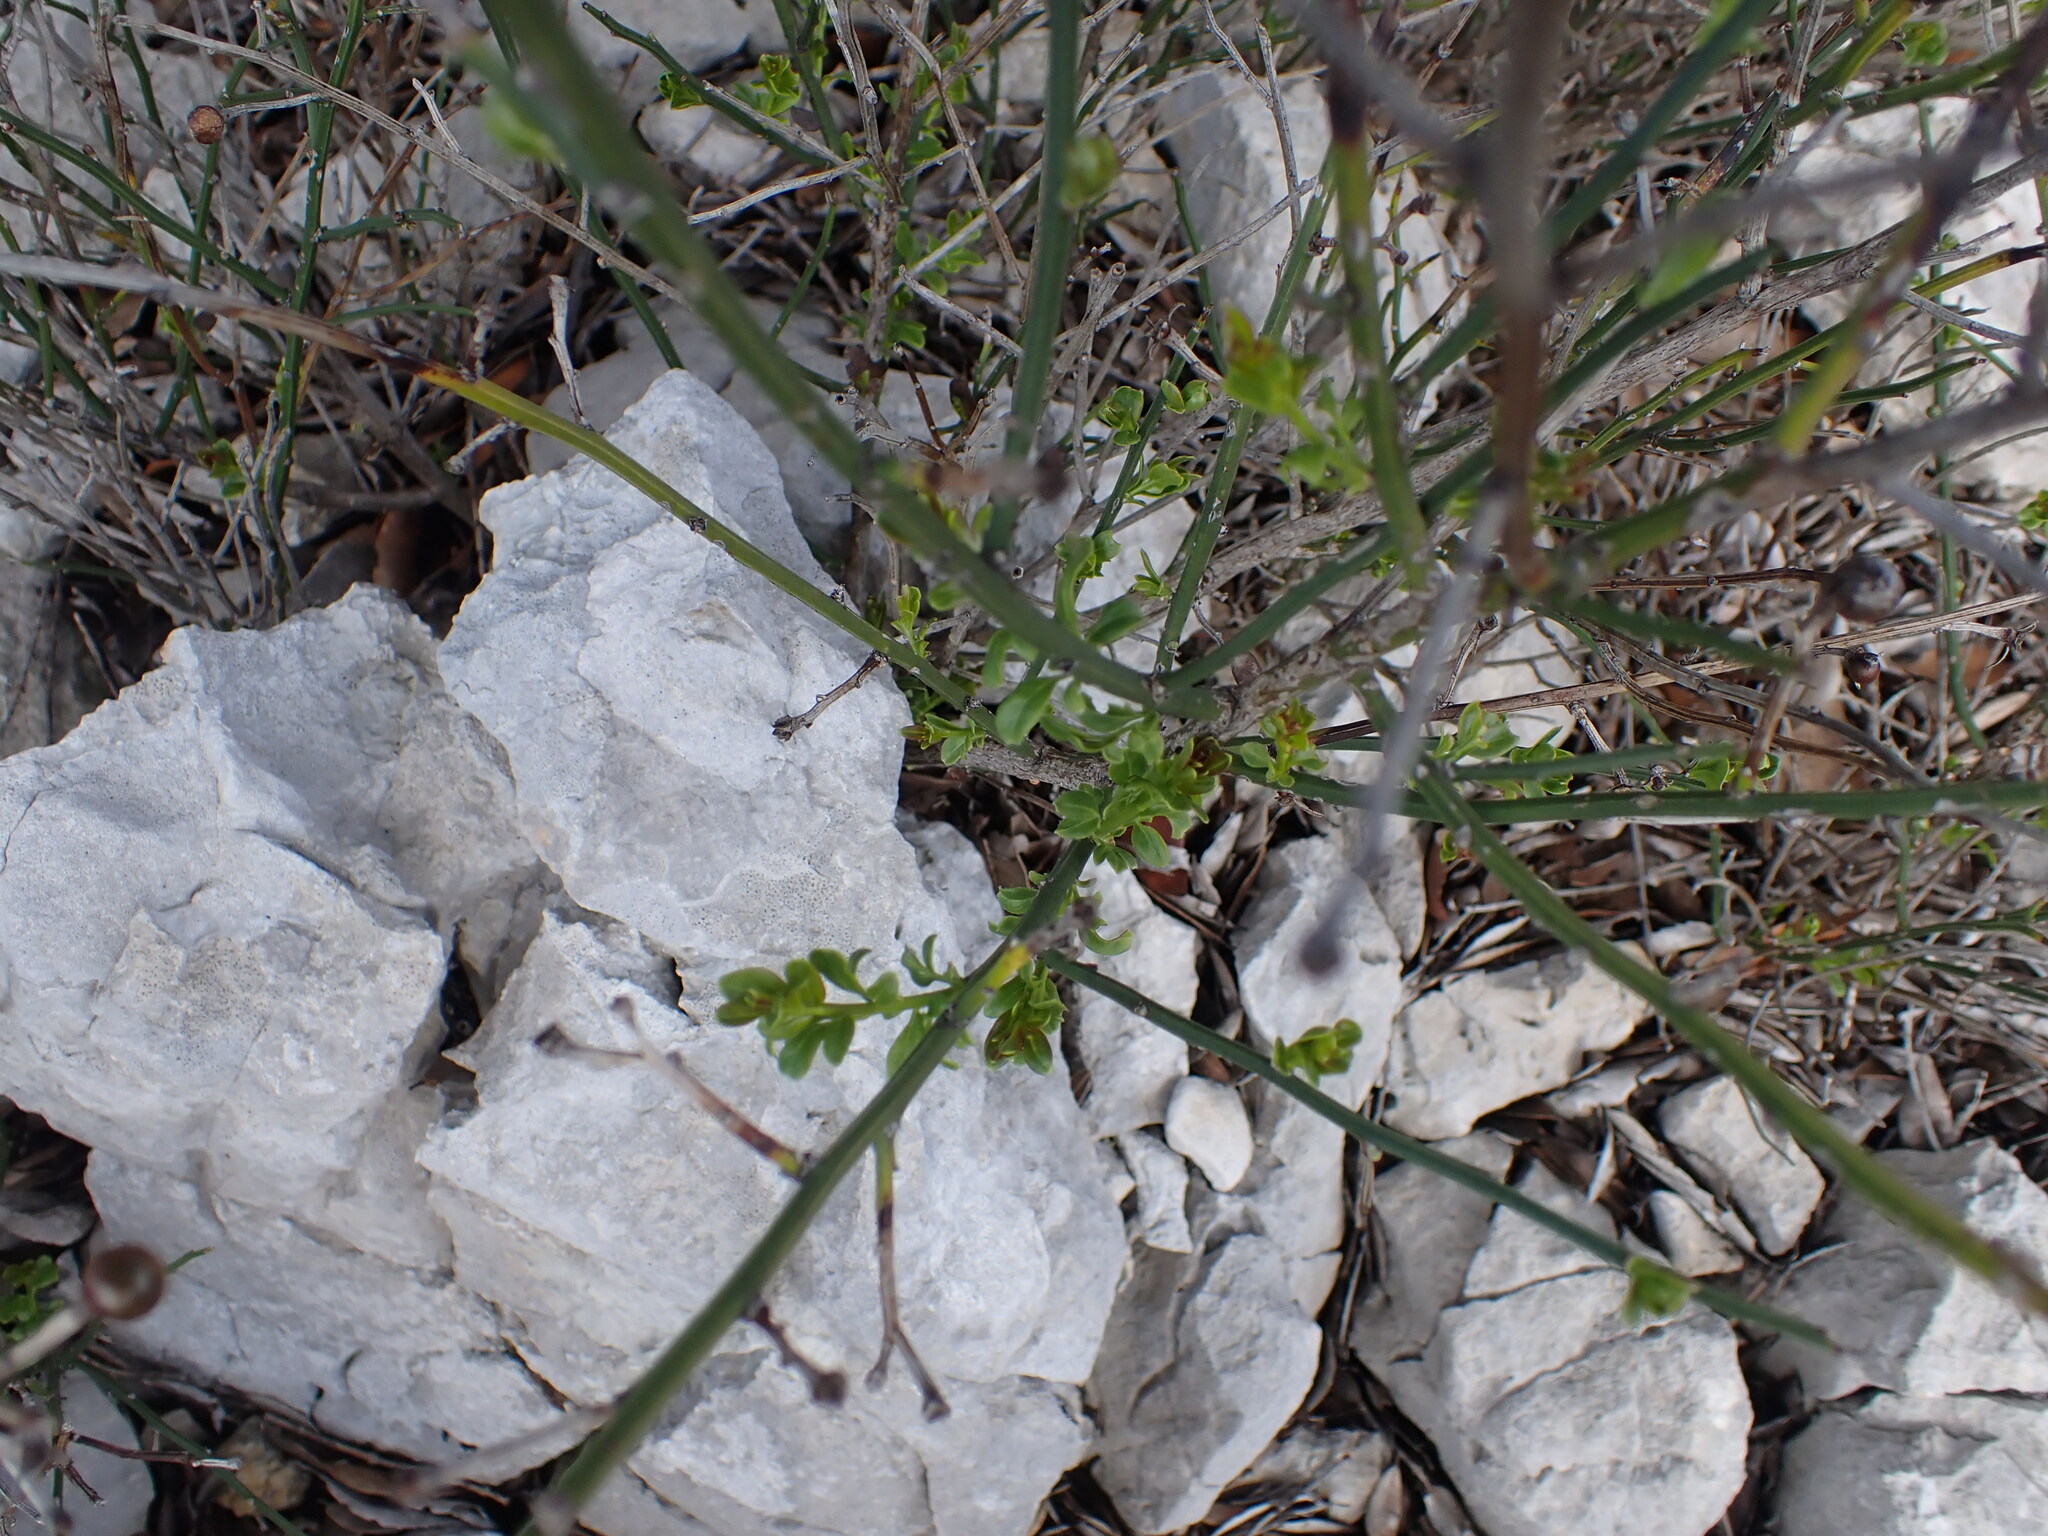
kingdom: Plantae
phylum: Tracheophyta
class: Magnoliopsida
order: Lamiales
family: Oleaceae
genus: Chrysojasminum
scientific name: Chrysojasminum fruticans
